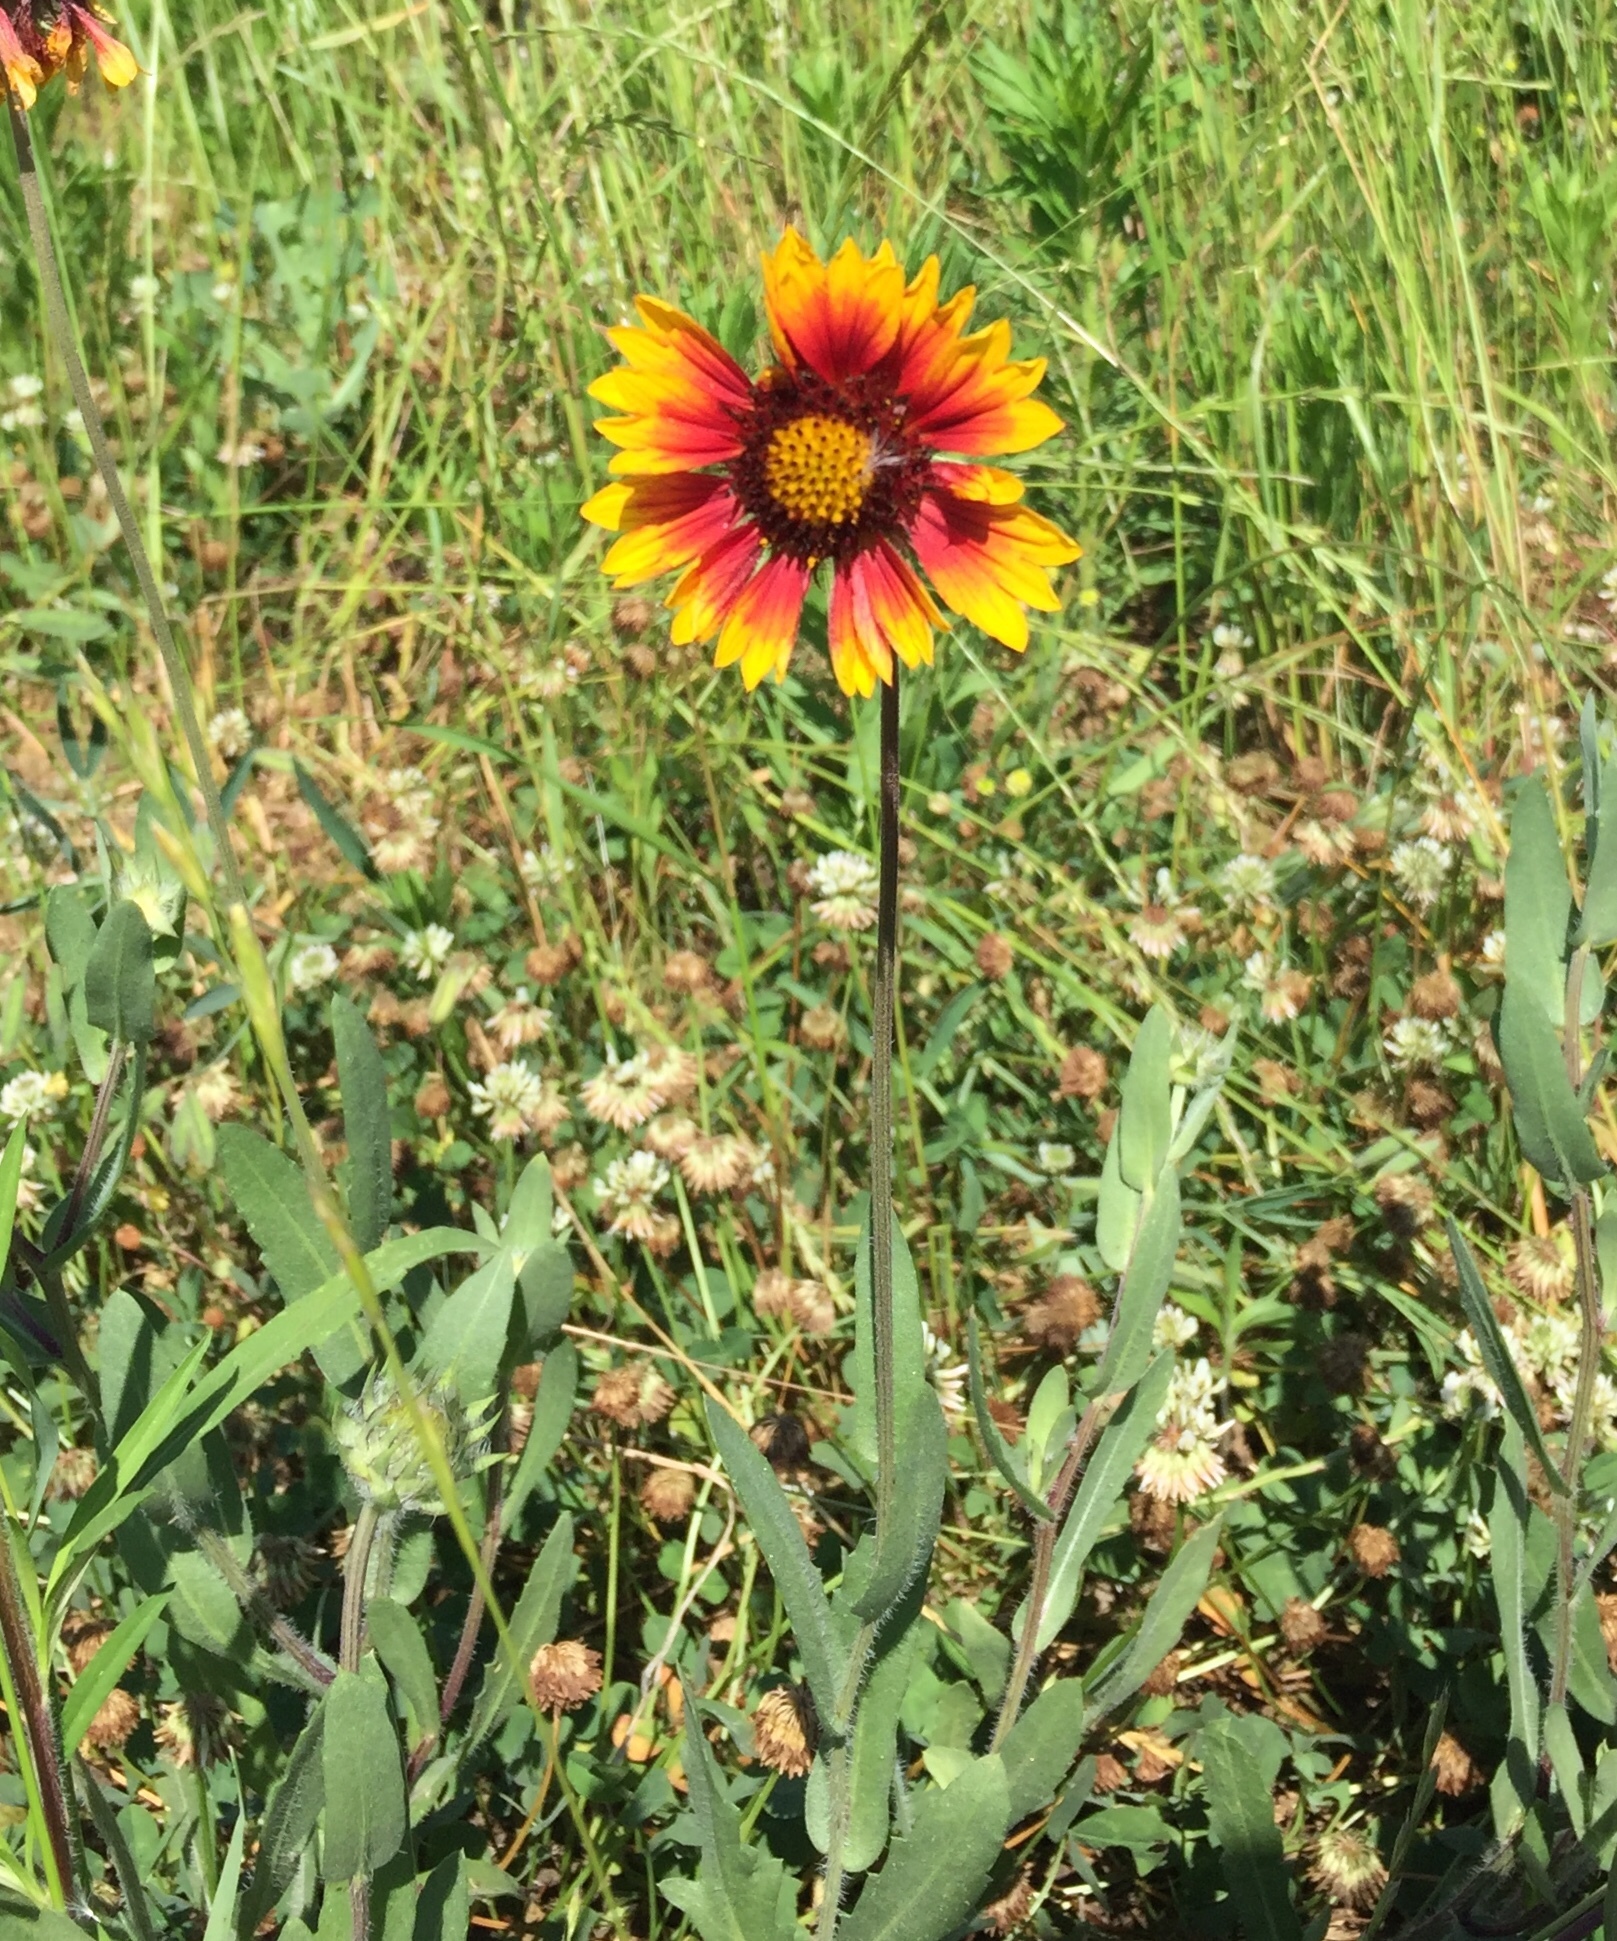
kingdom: Plantae
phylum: Tracheophyta
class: Magnoliopsida
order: Asterales
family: Asteraceae
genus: Gaillardia
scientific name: Gaillardia pulchella
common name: Firewheel
